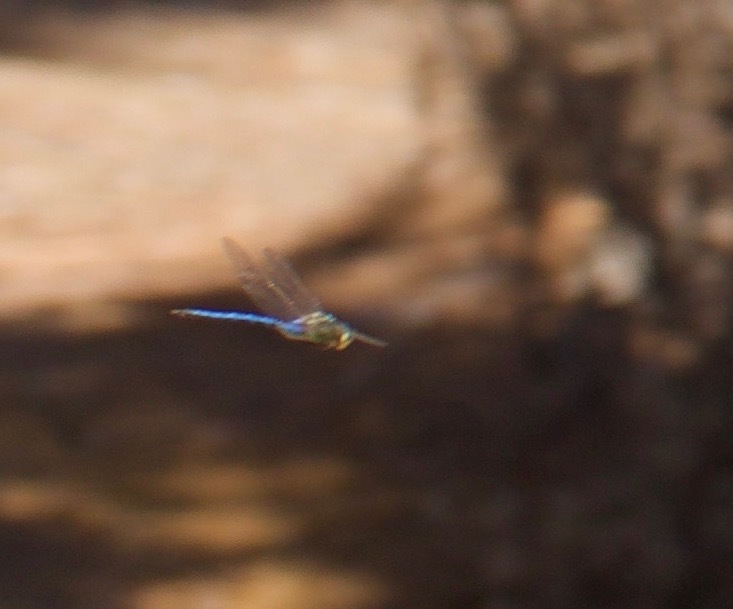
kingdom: Animalia
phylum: Arthropoda
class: Insecta
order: Odonata
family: Aeshnidae
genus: Anax
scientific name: Anax imperator
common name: Emperor dragonfly
